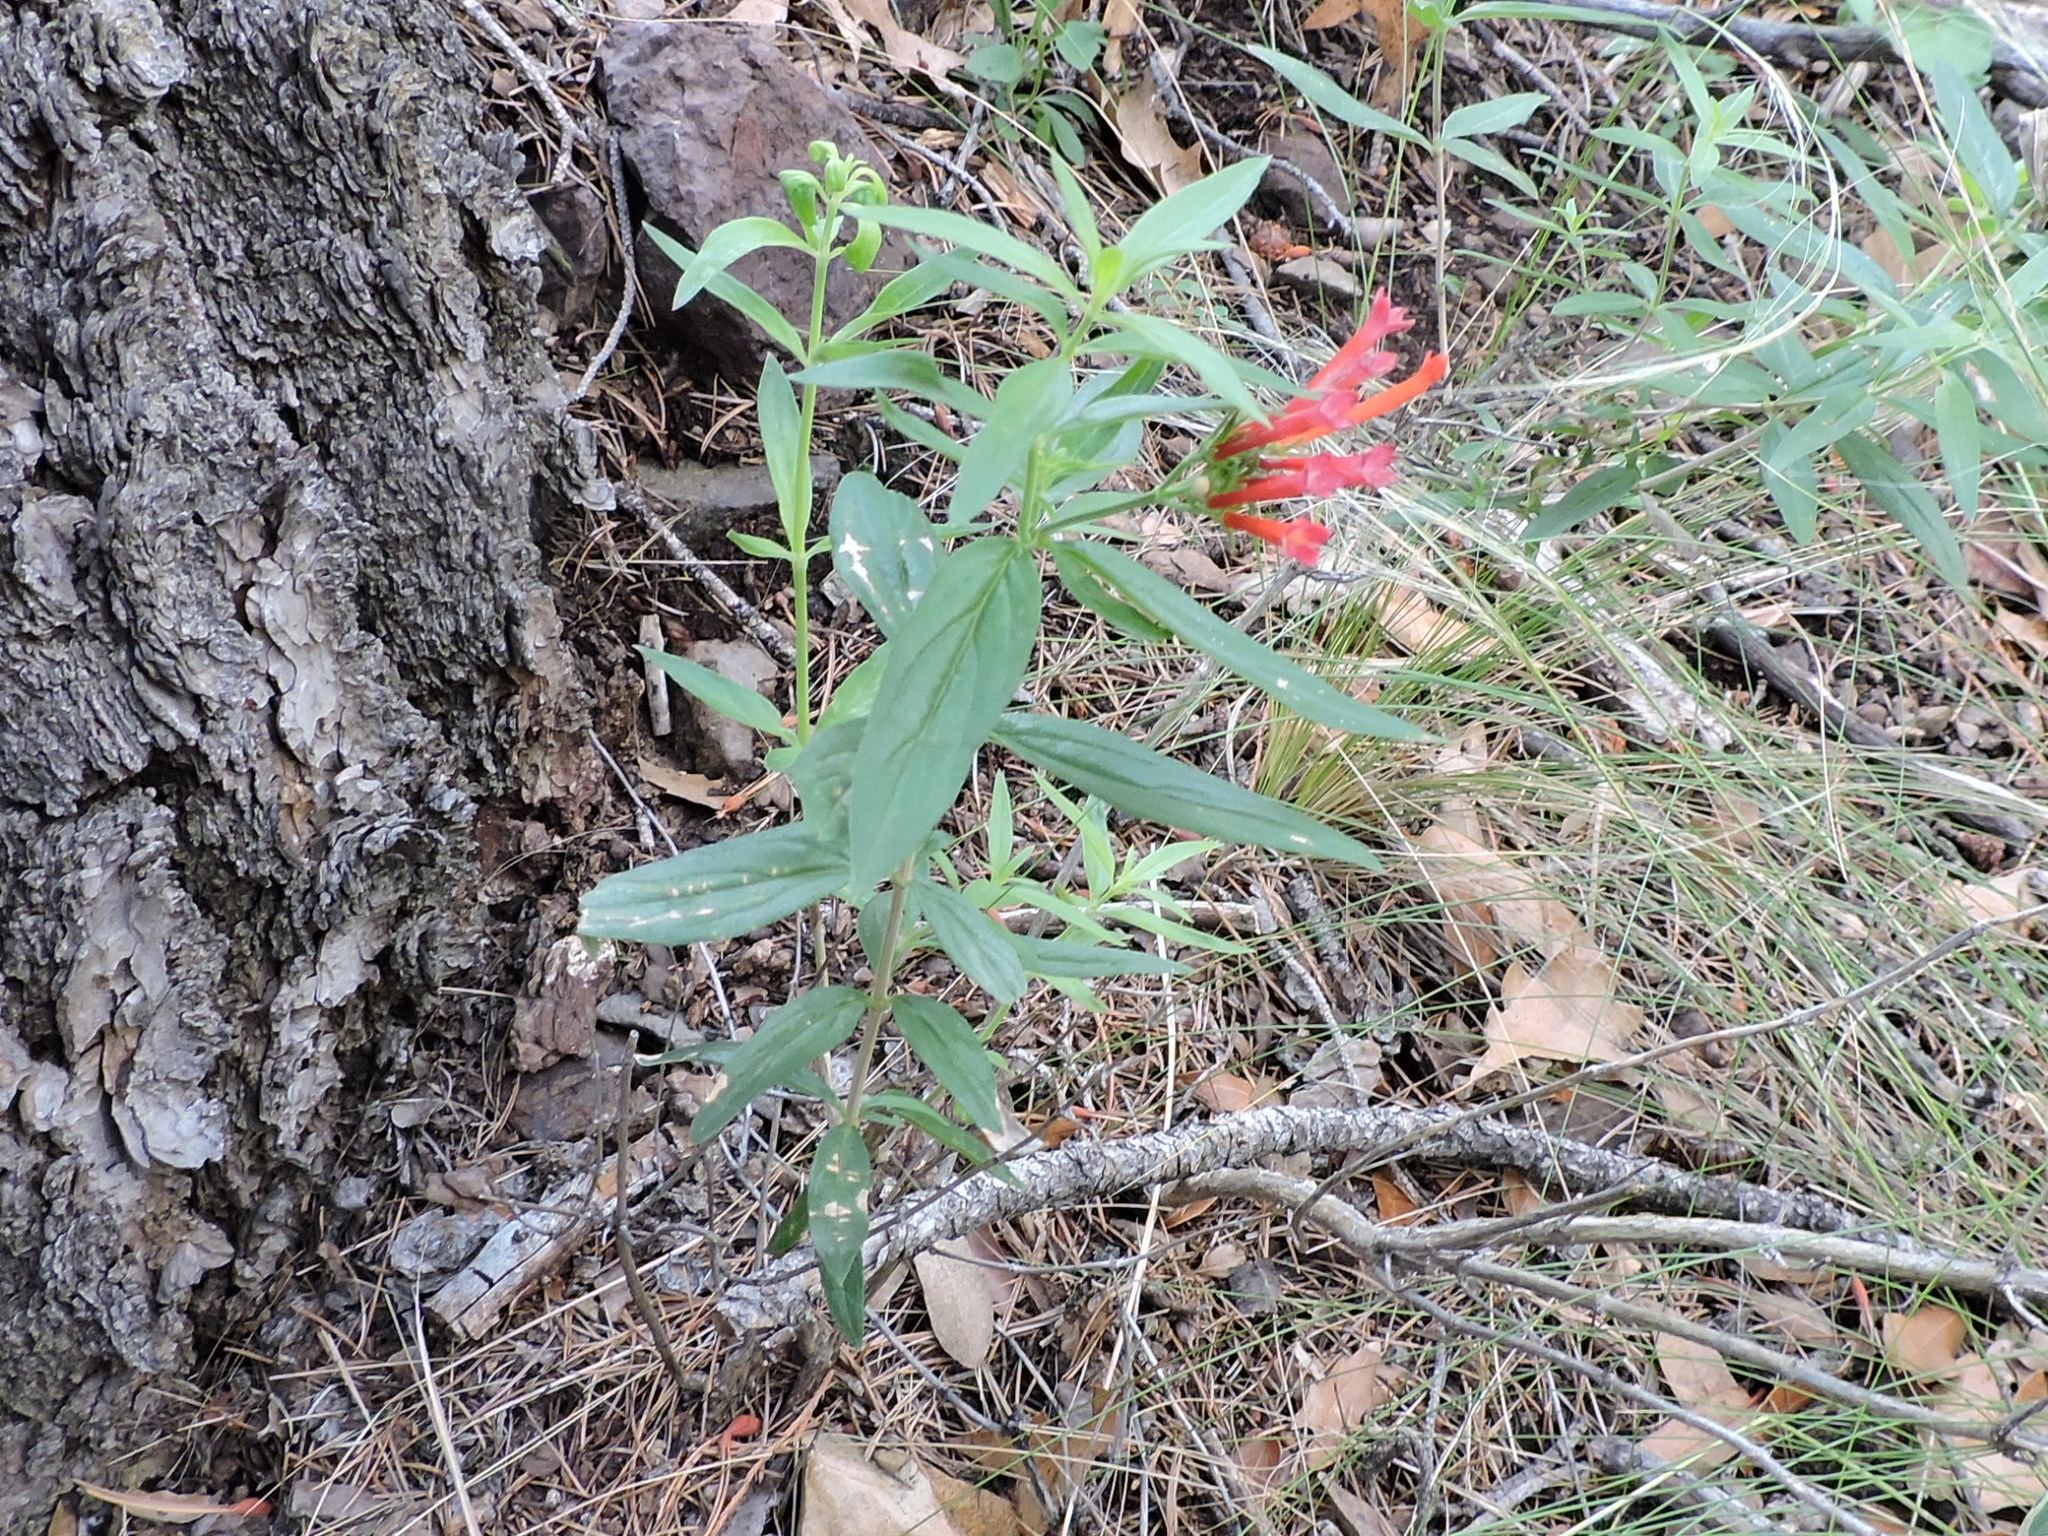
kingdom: Plantae
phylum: Tracheophyta
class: Magnoliopsida
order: Gentianales
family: Rubiaceae
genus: Bouvardia
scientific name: Bouvardia ternifolia
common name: Scarlet bouvardia
